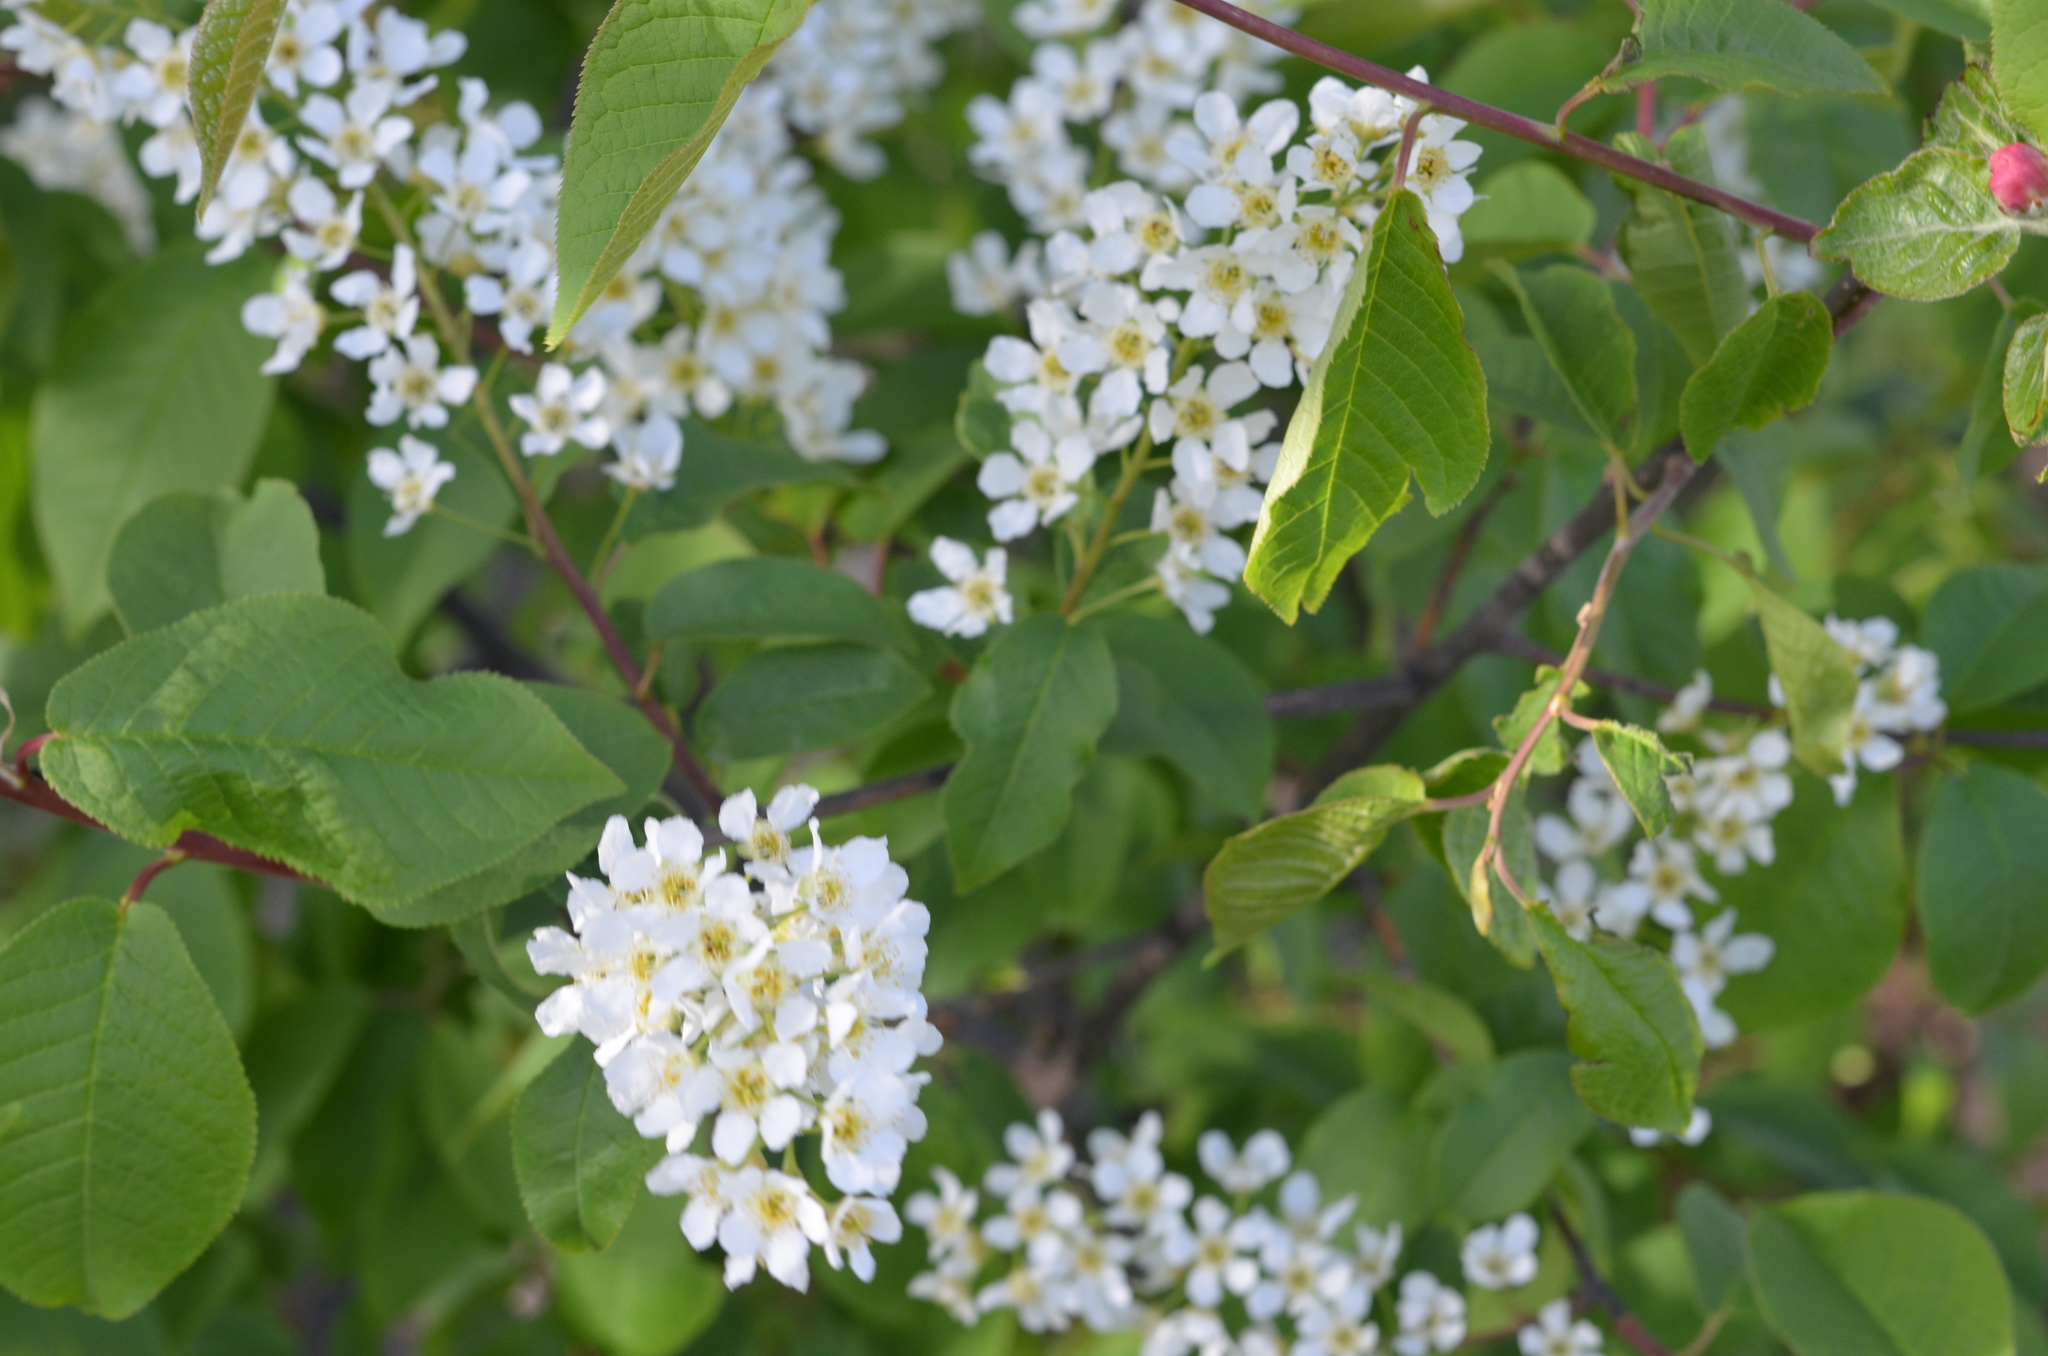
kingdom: Plantae
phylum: Tracheophyta
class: Magnoliopsida
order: Rosales
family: Rosaceae
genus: Prunus
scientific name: Prunus padus
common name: Bird cherry
